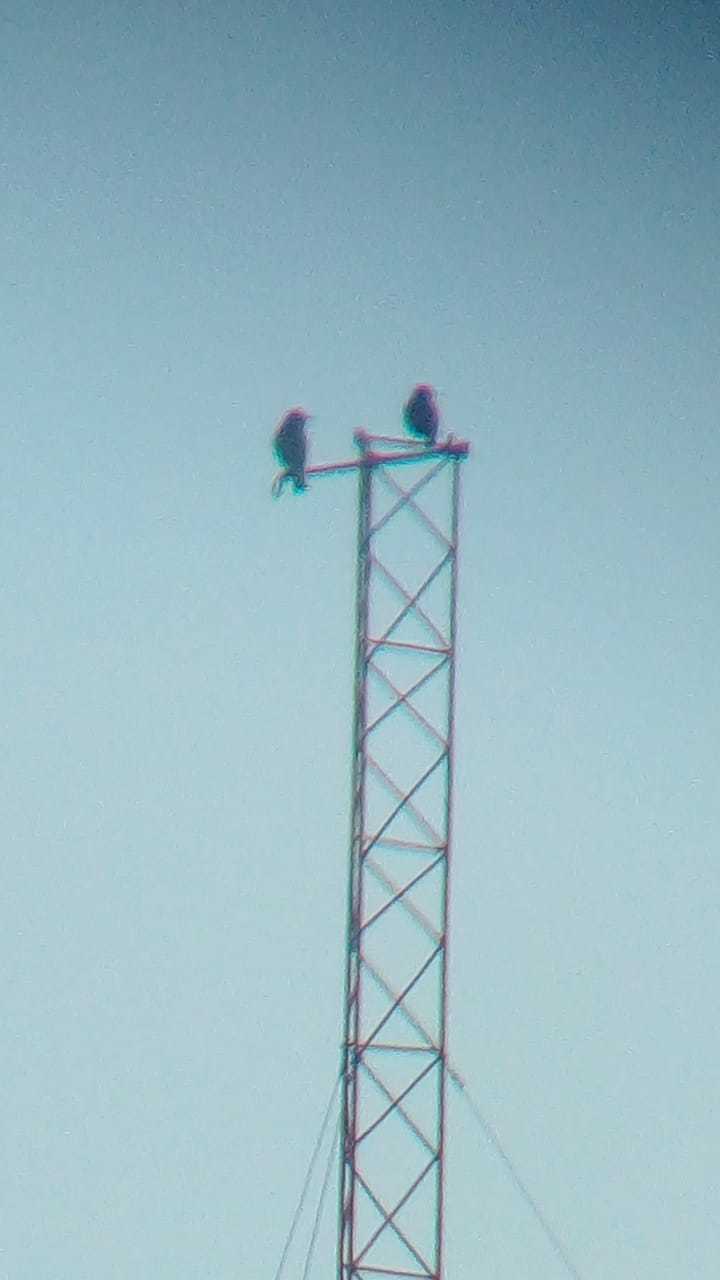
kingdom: Animalia
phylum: Chordata
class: Aves
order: Passeriformes
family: Sturnidae
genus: Sturnus
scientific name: Sturnus vulgaris
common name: Common starling
